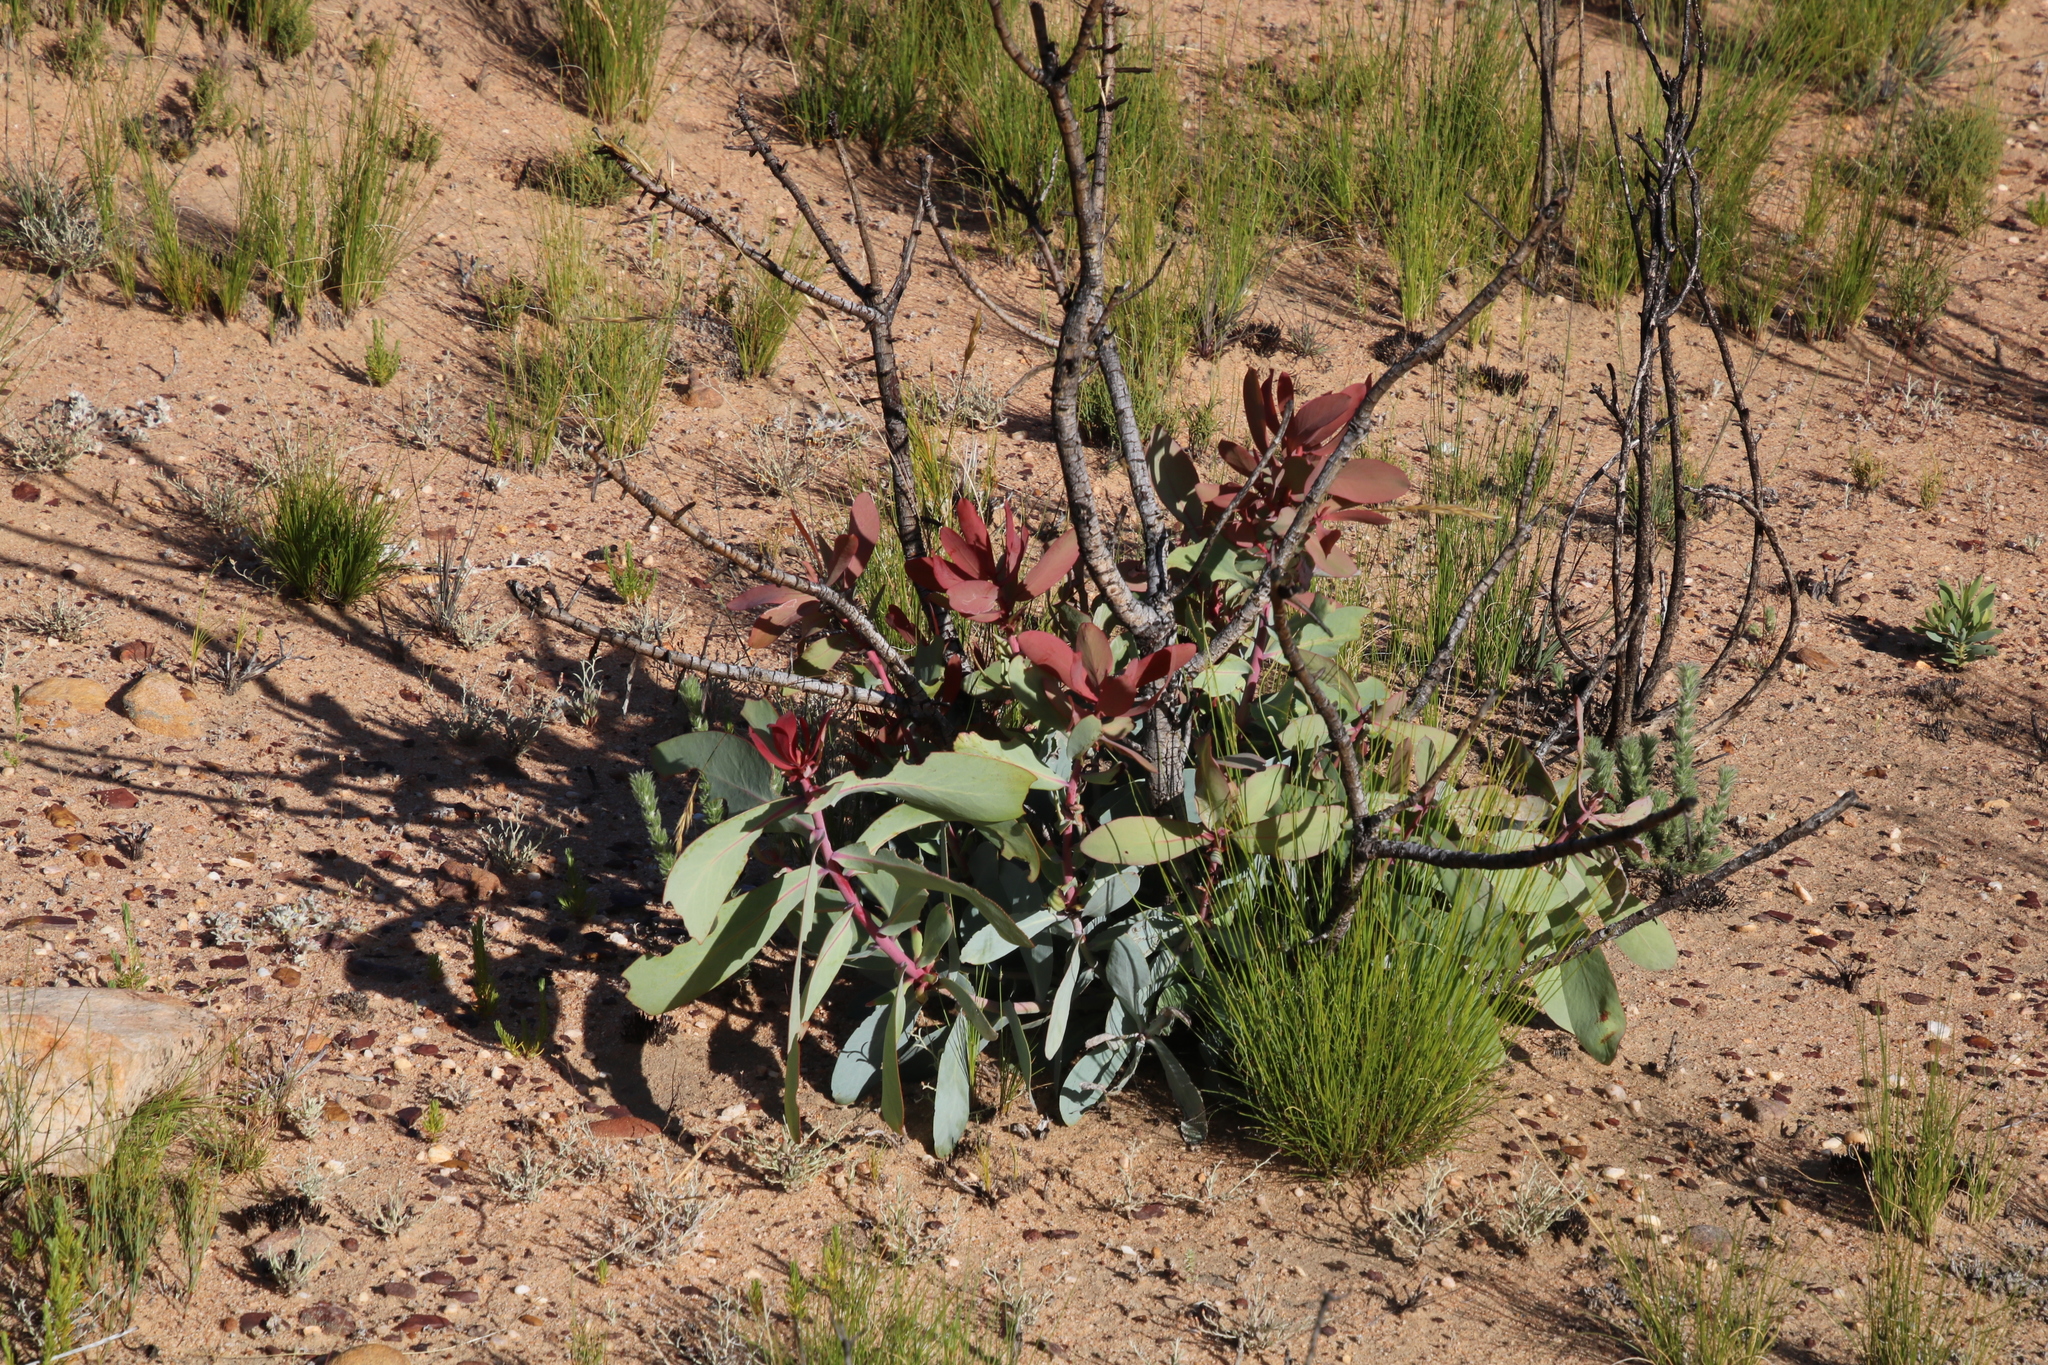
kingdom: Plantae
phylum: Tracheophyta
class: Magnoliopsida
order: Proteales
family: Proteaceae
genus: Protea
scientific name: Protea nitida
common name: Tree protea
